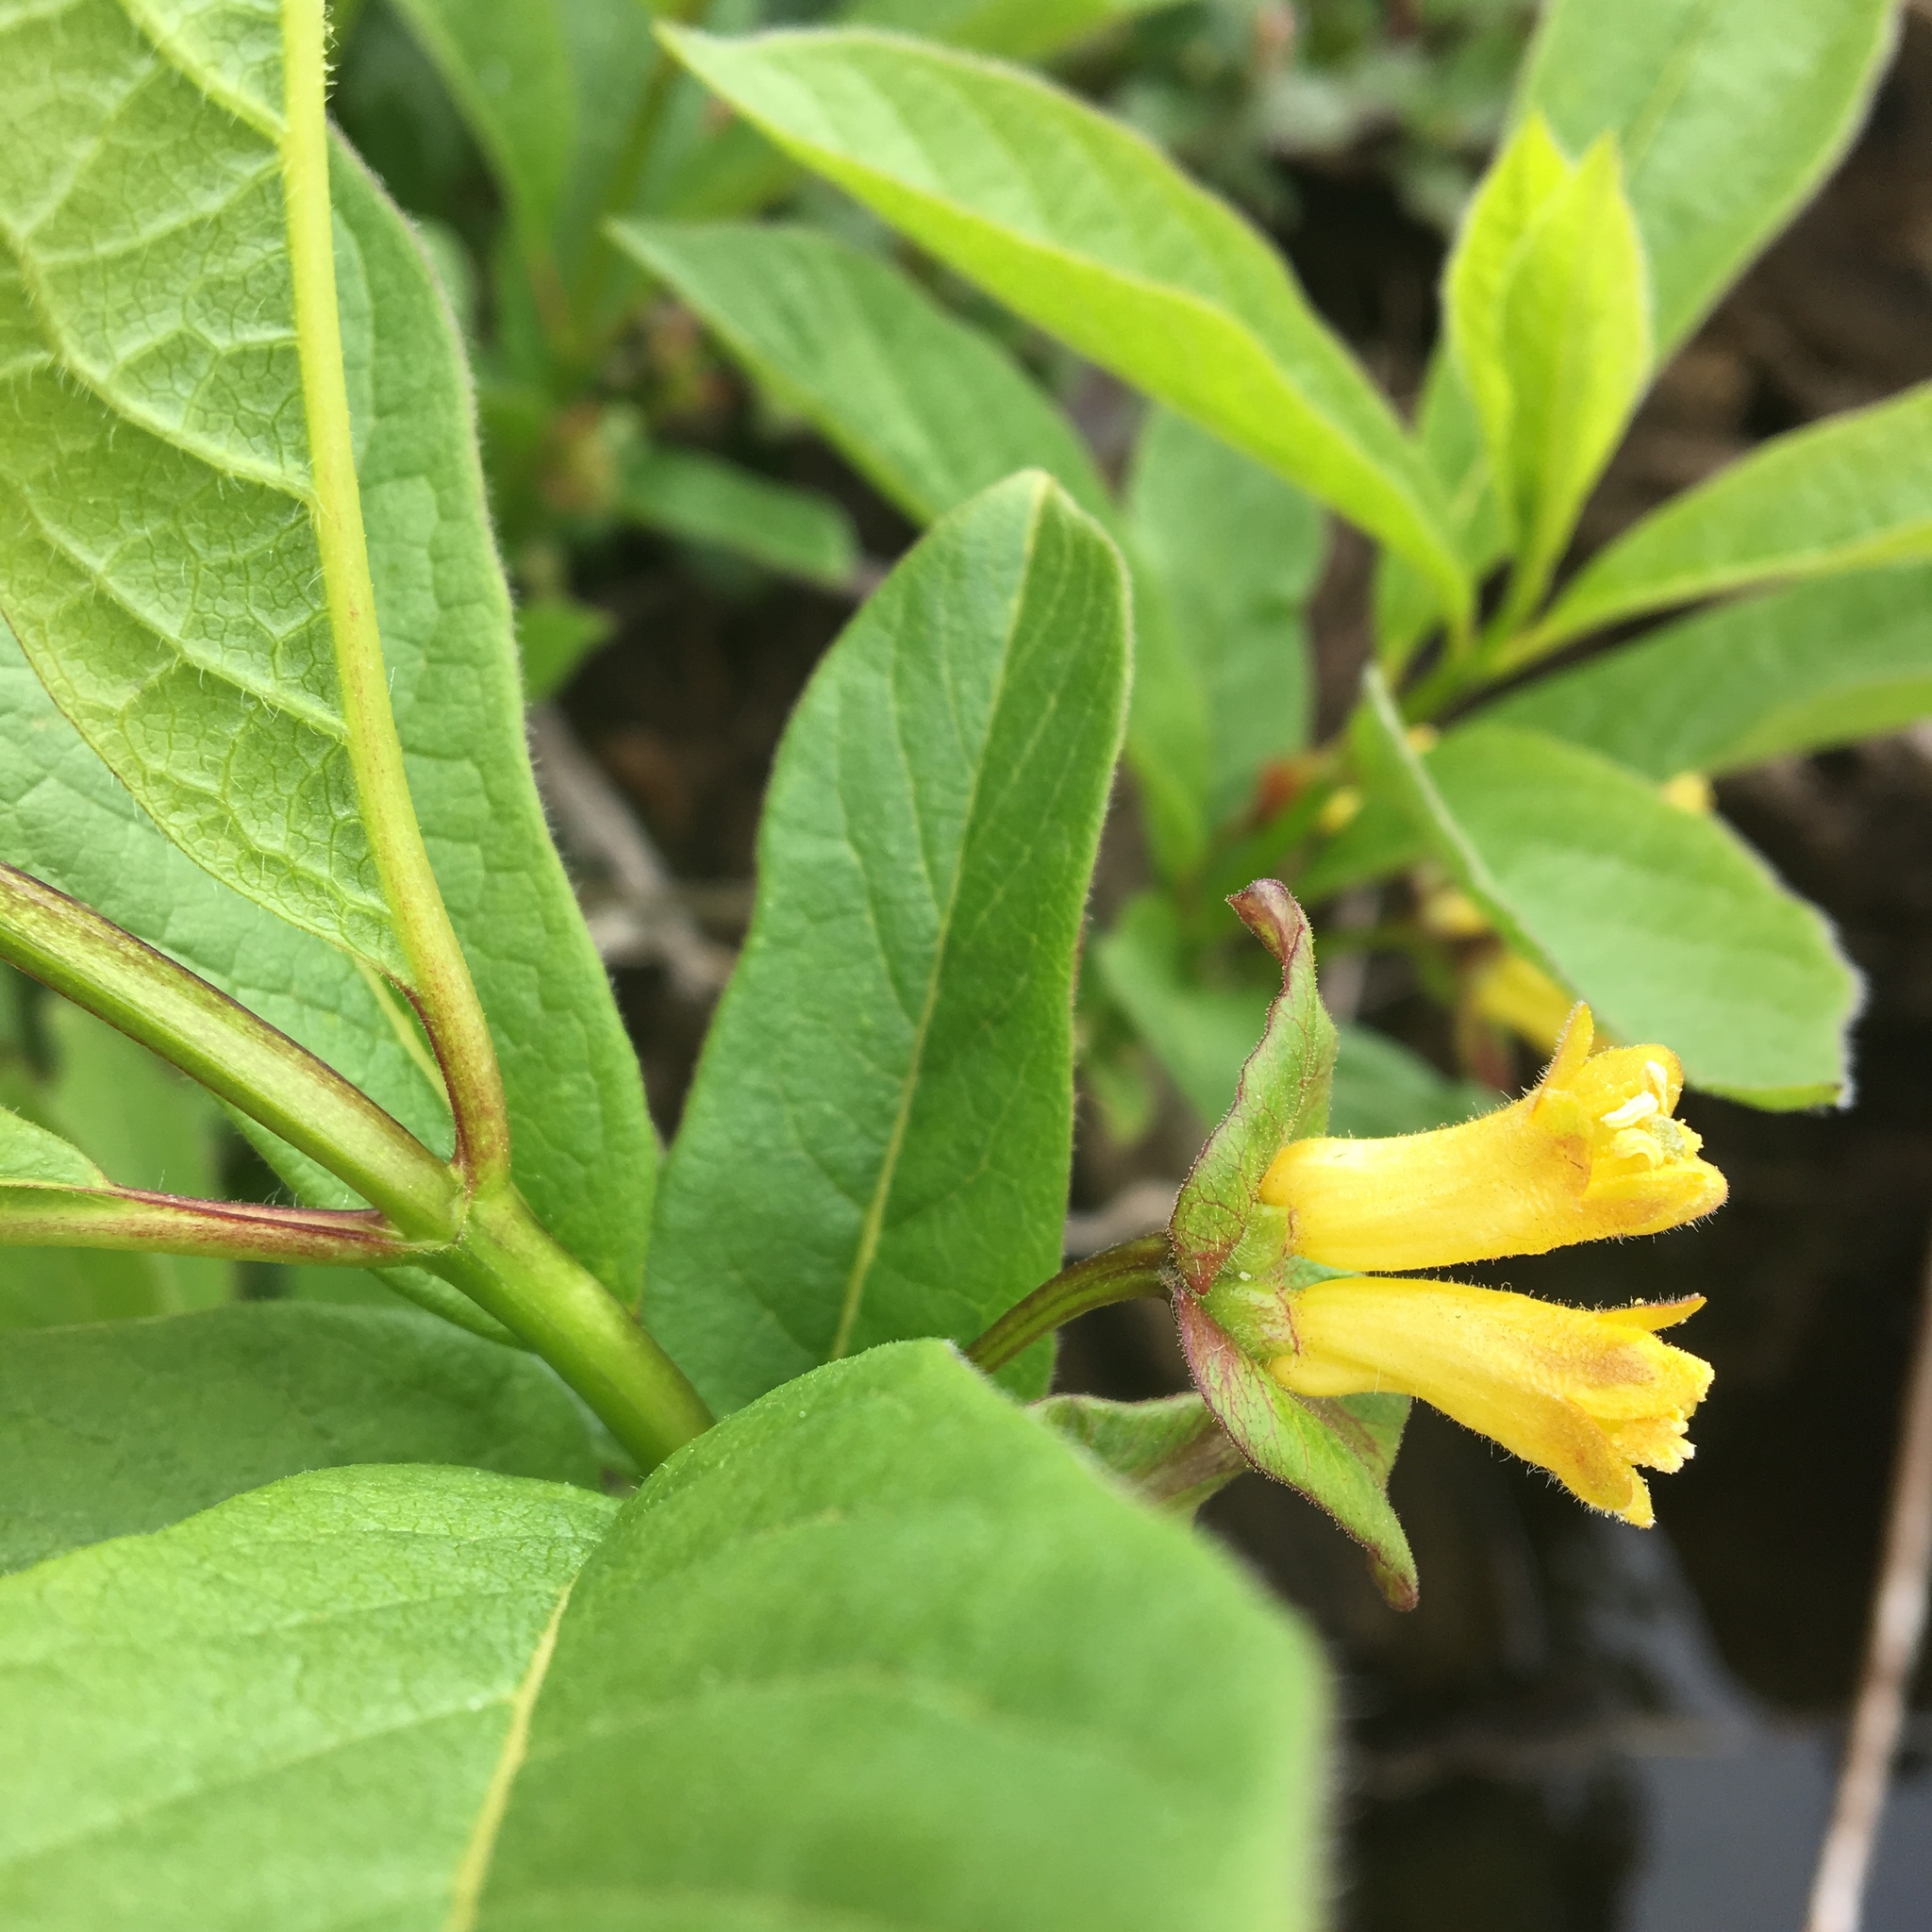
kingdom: Plantae
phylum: Tracheophyta
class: Magnoliopsida
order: Dipsacales
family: Caprifoliaceae
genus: Lonicera
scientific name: Lonicera involucrata
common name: Californian honeysuckle
